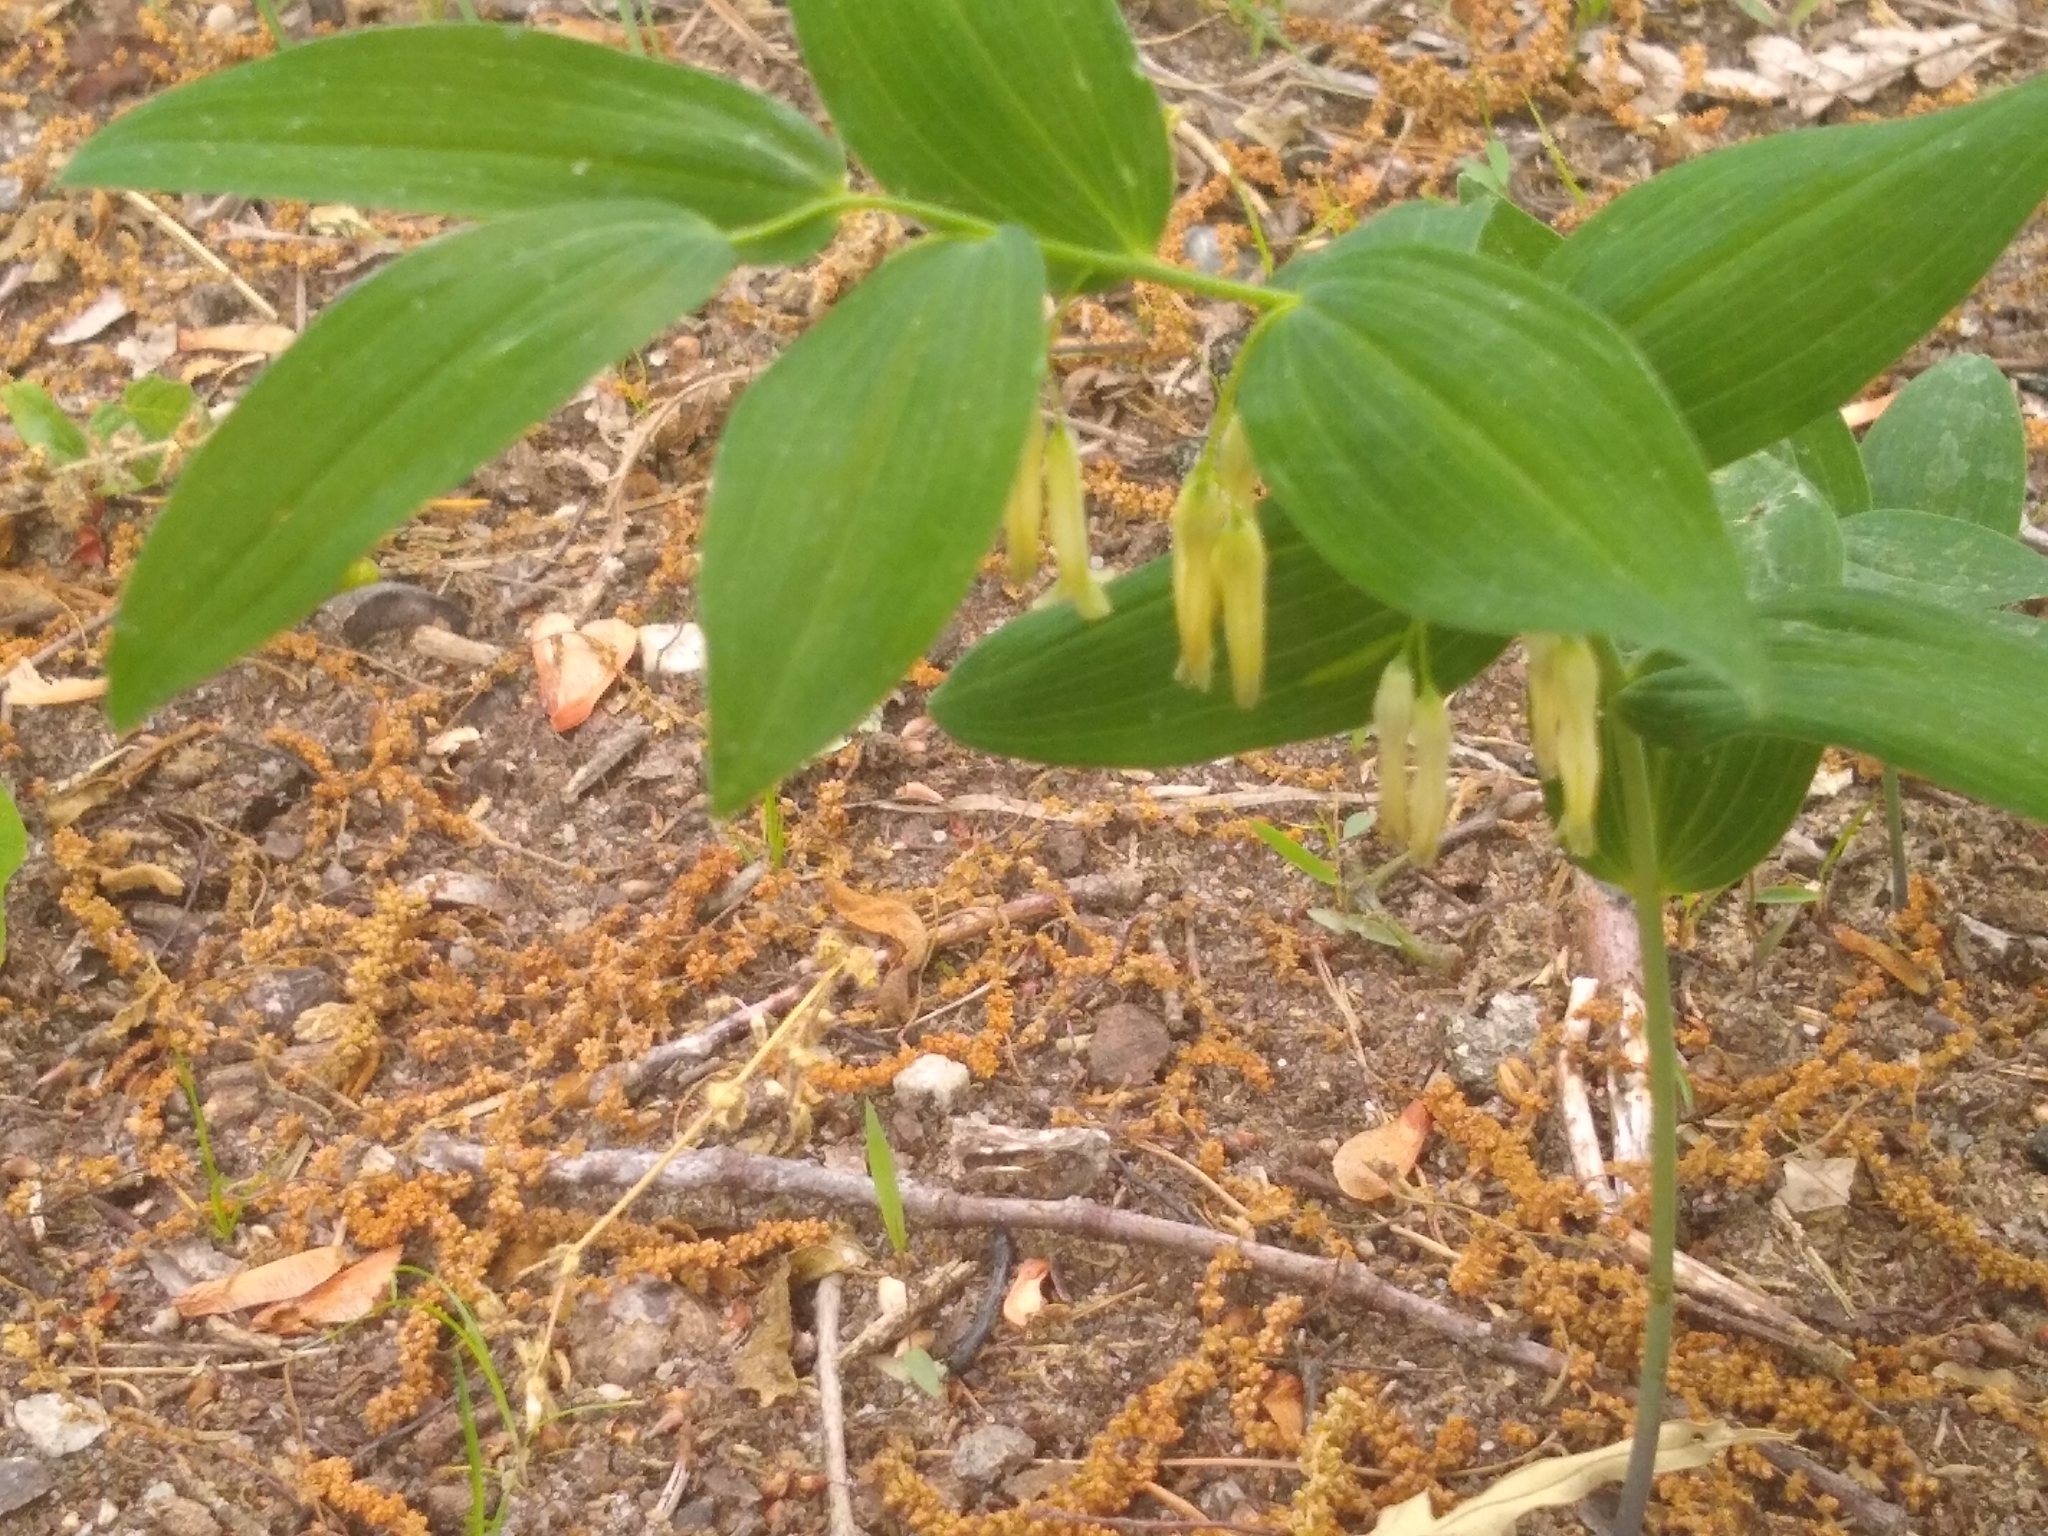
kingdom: Plantae
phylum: Tracheophyta
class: Liliopsida
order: Asparagales
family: Asparagaceae
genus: Polygonatum
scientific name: Polygonatum biflorum
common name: American solomon's-seal
